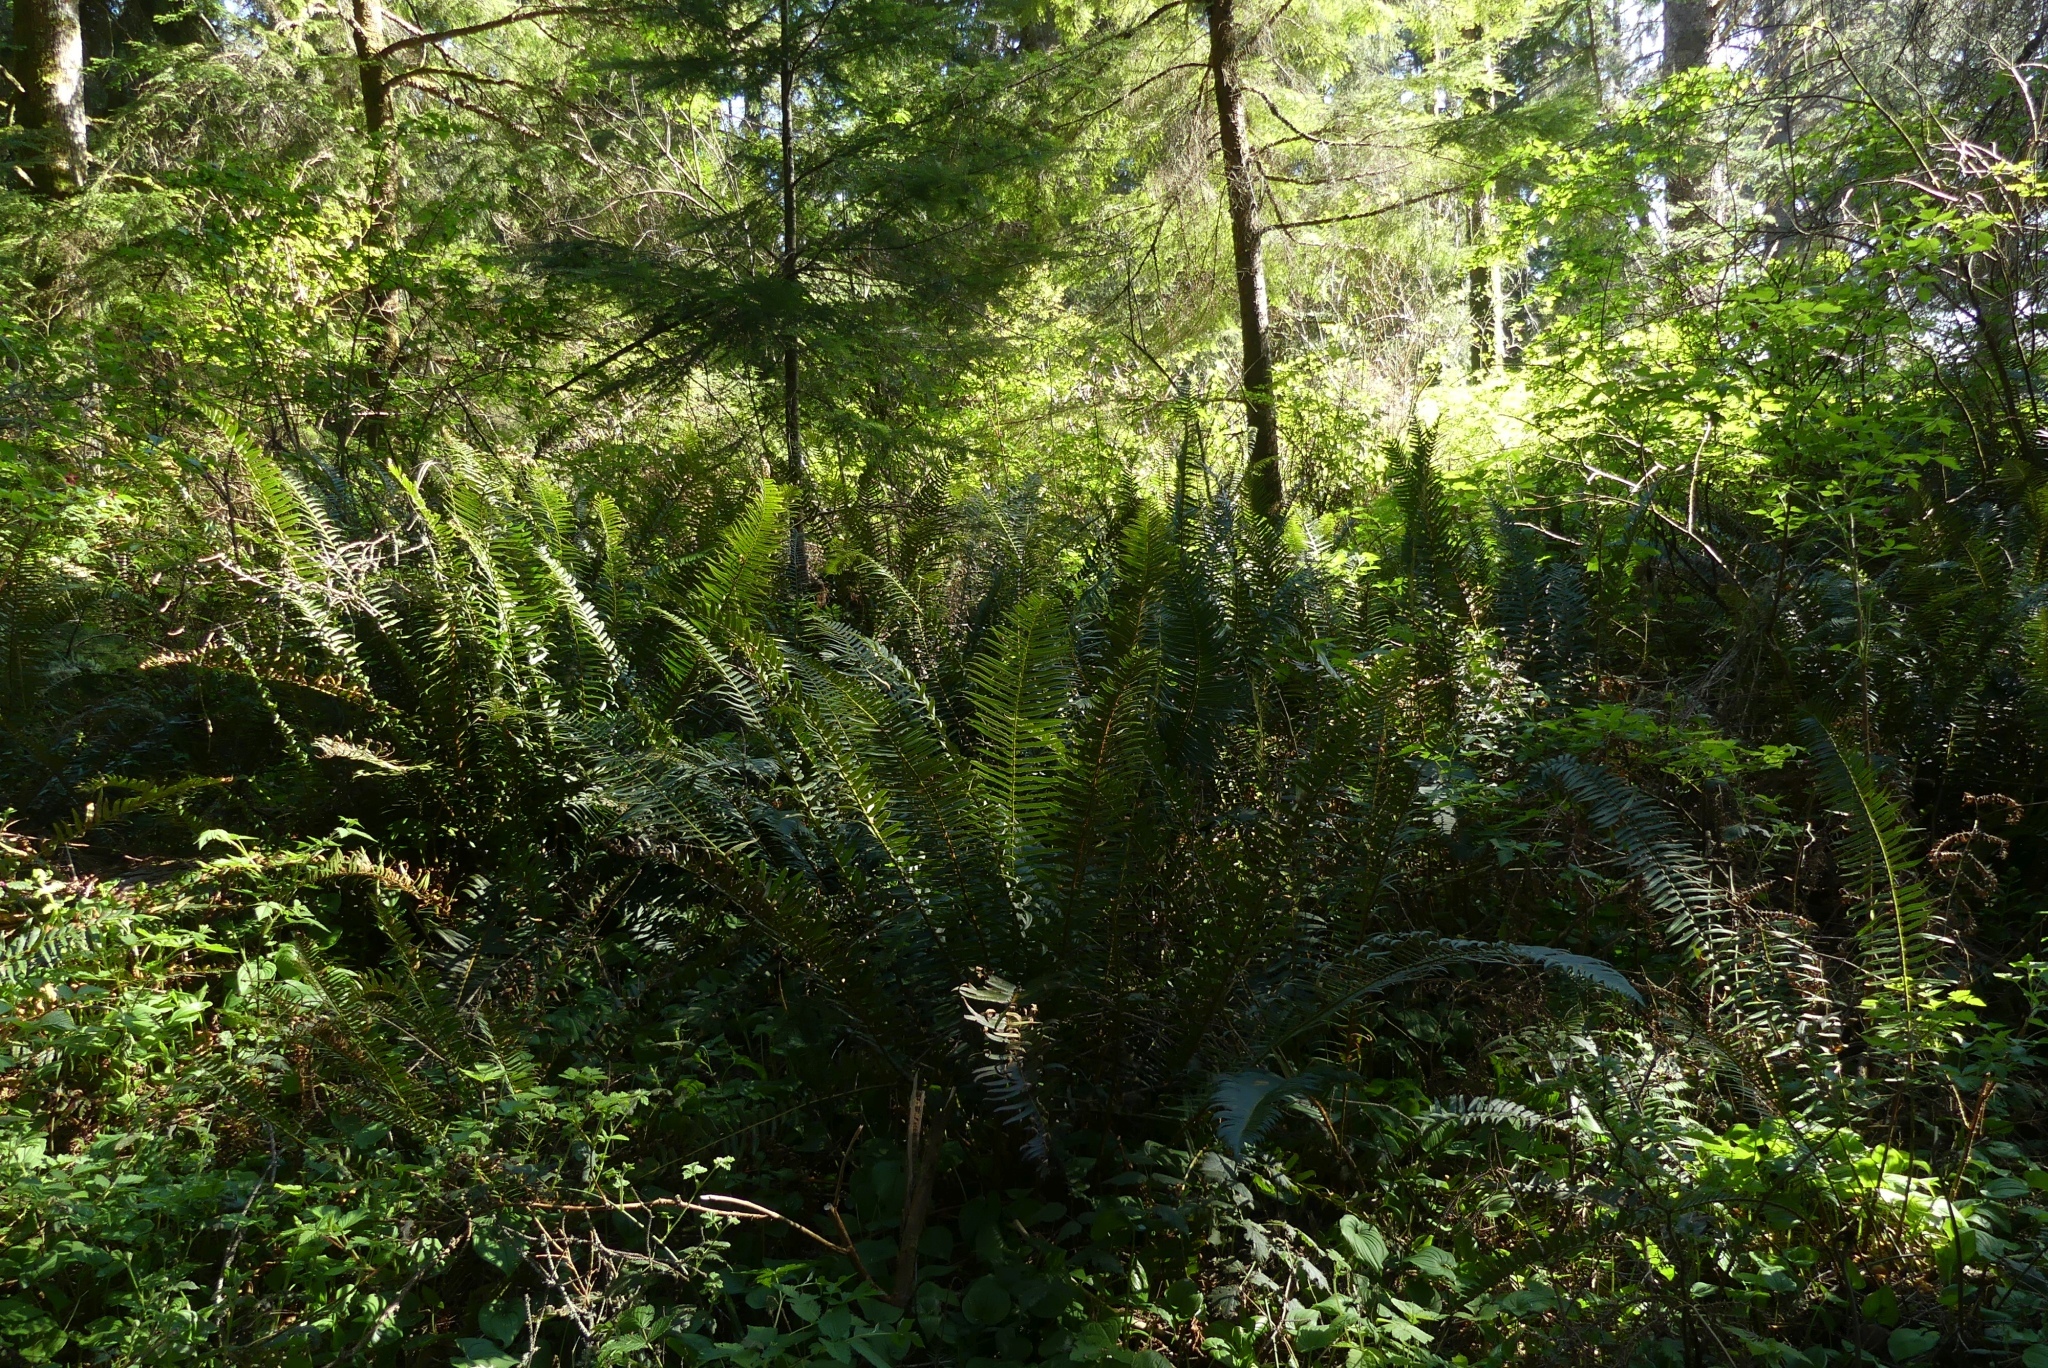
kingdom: Plantae
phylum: Tracheophyta
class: Polypodiopsida
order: Polypodiales
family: Dryopteridaceae
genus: Polystichum
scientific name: Polystichum munitum
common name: Western sword-fern
